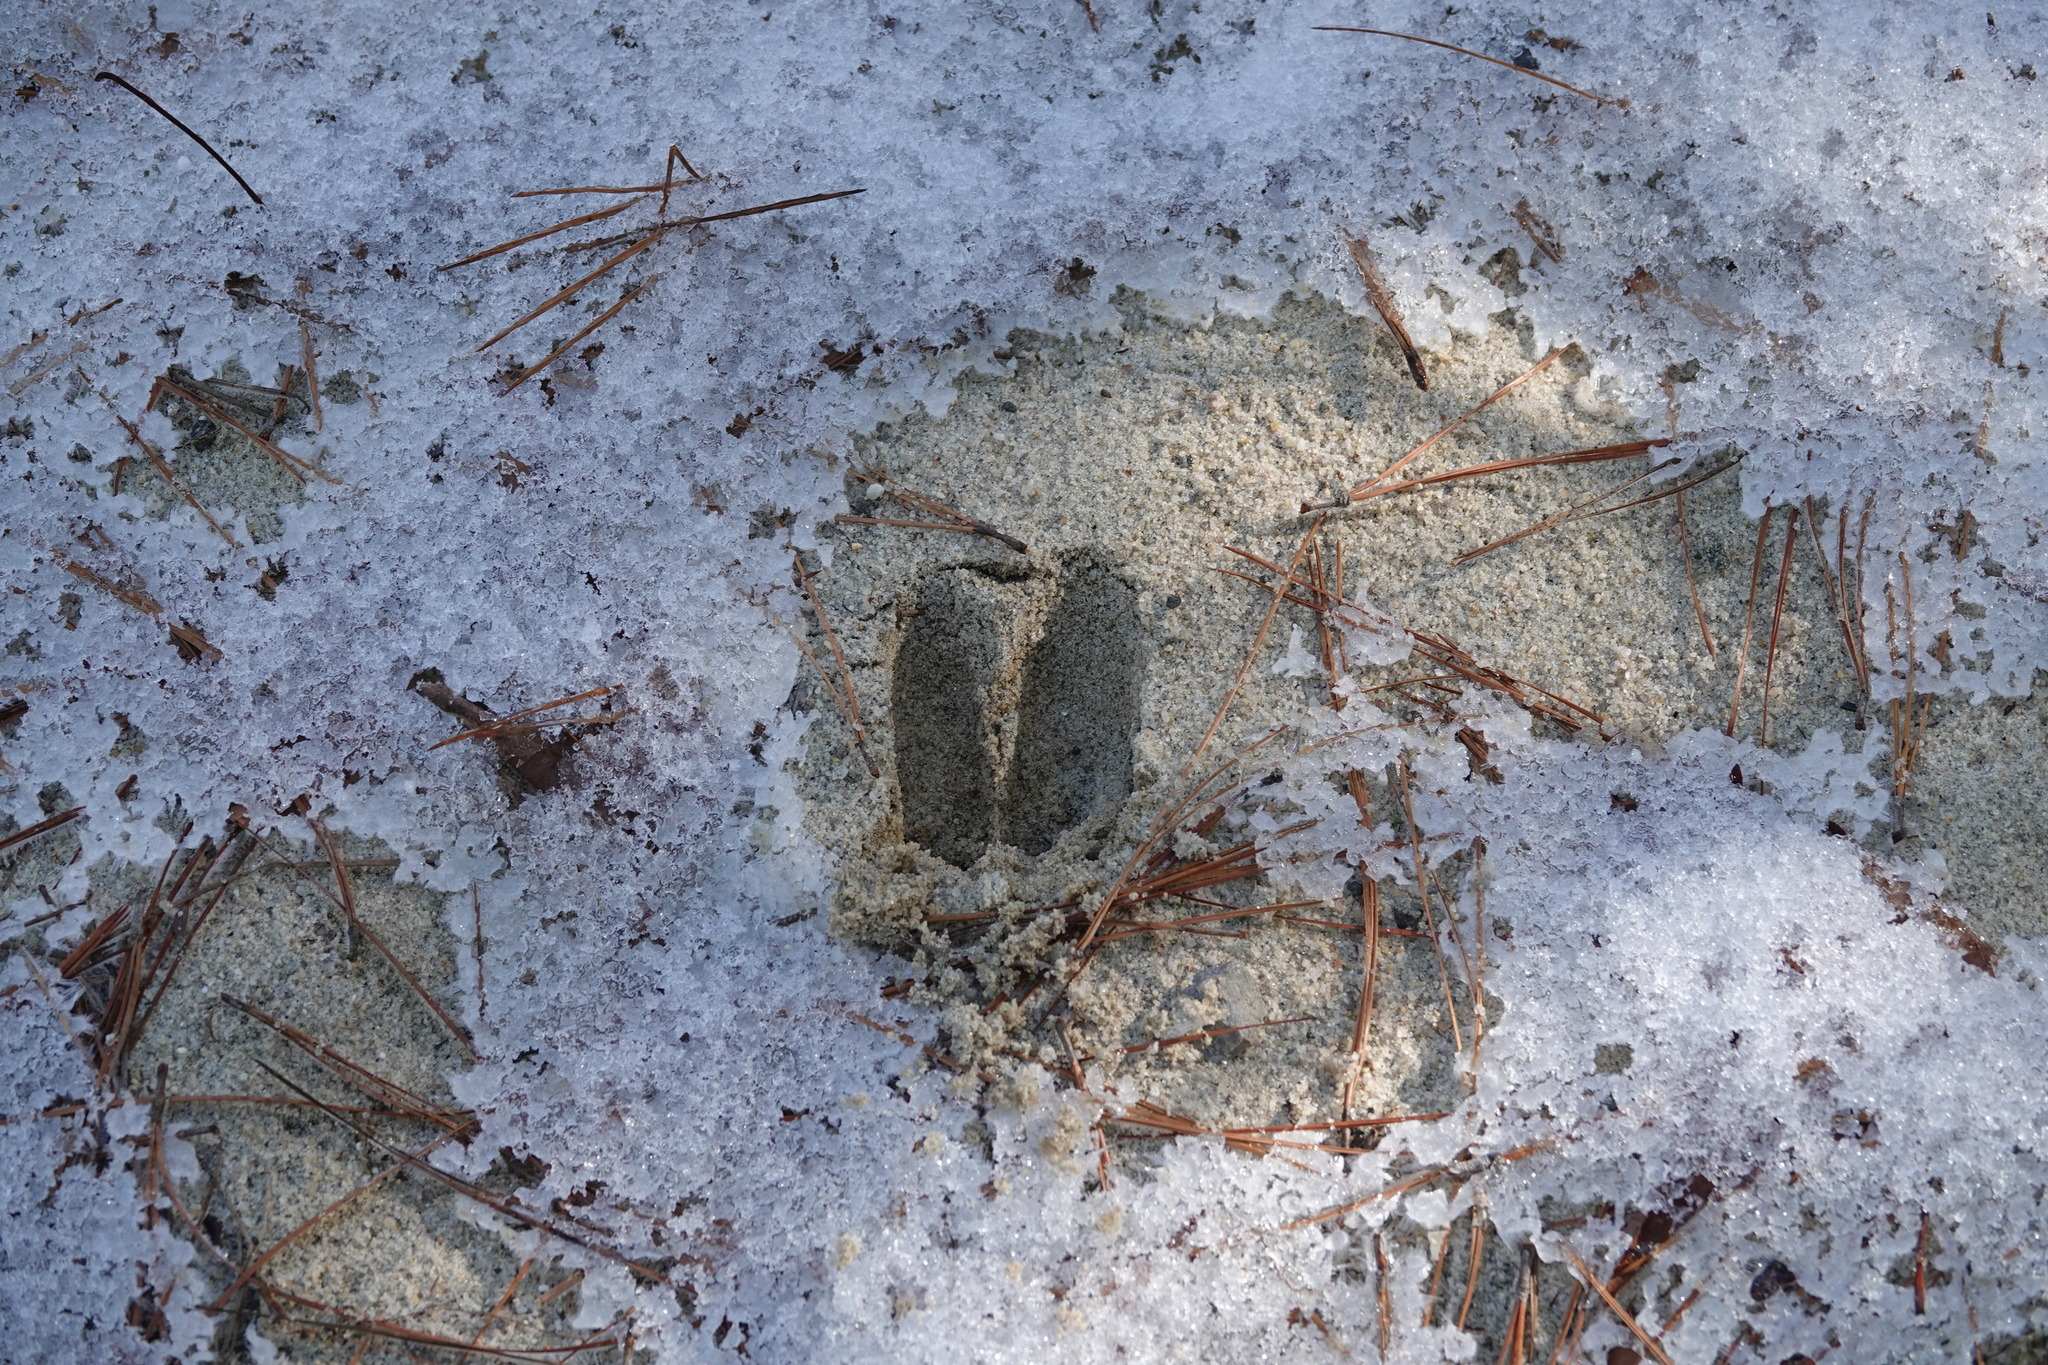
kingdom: Animalia
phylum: Chordata
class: Mammalia
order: Artiodactyla
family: Cervidae
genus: Odocoileus
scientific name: Odocoileus virginianus
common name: White-tailed deer
